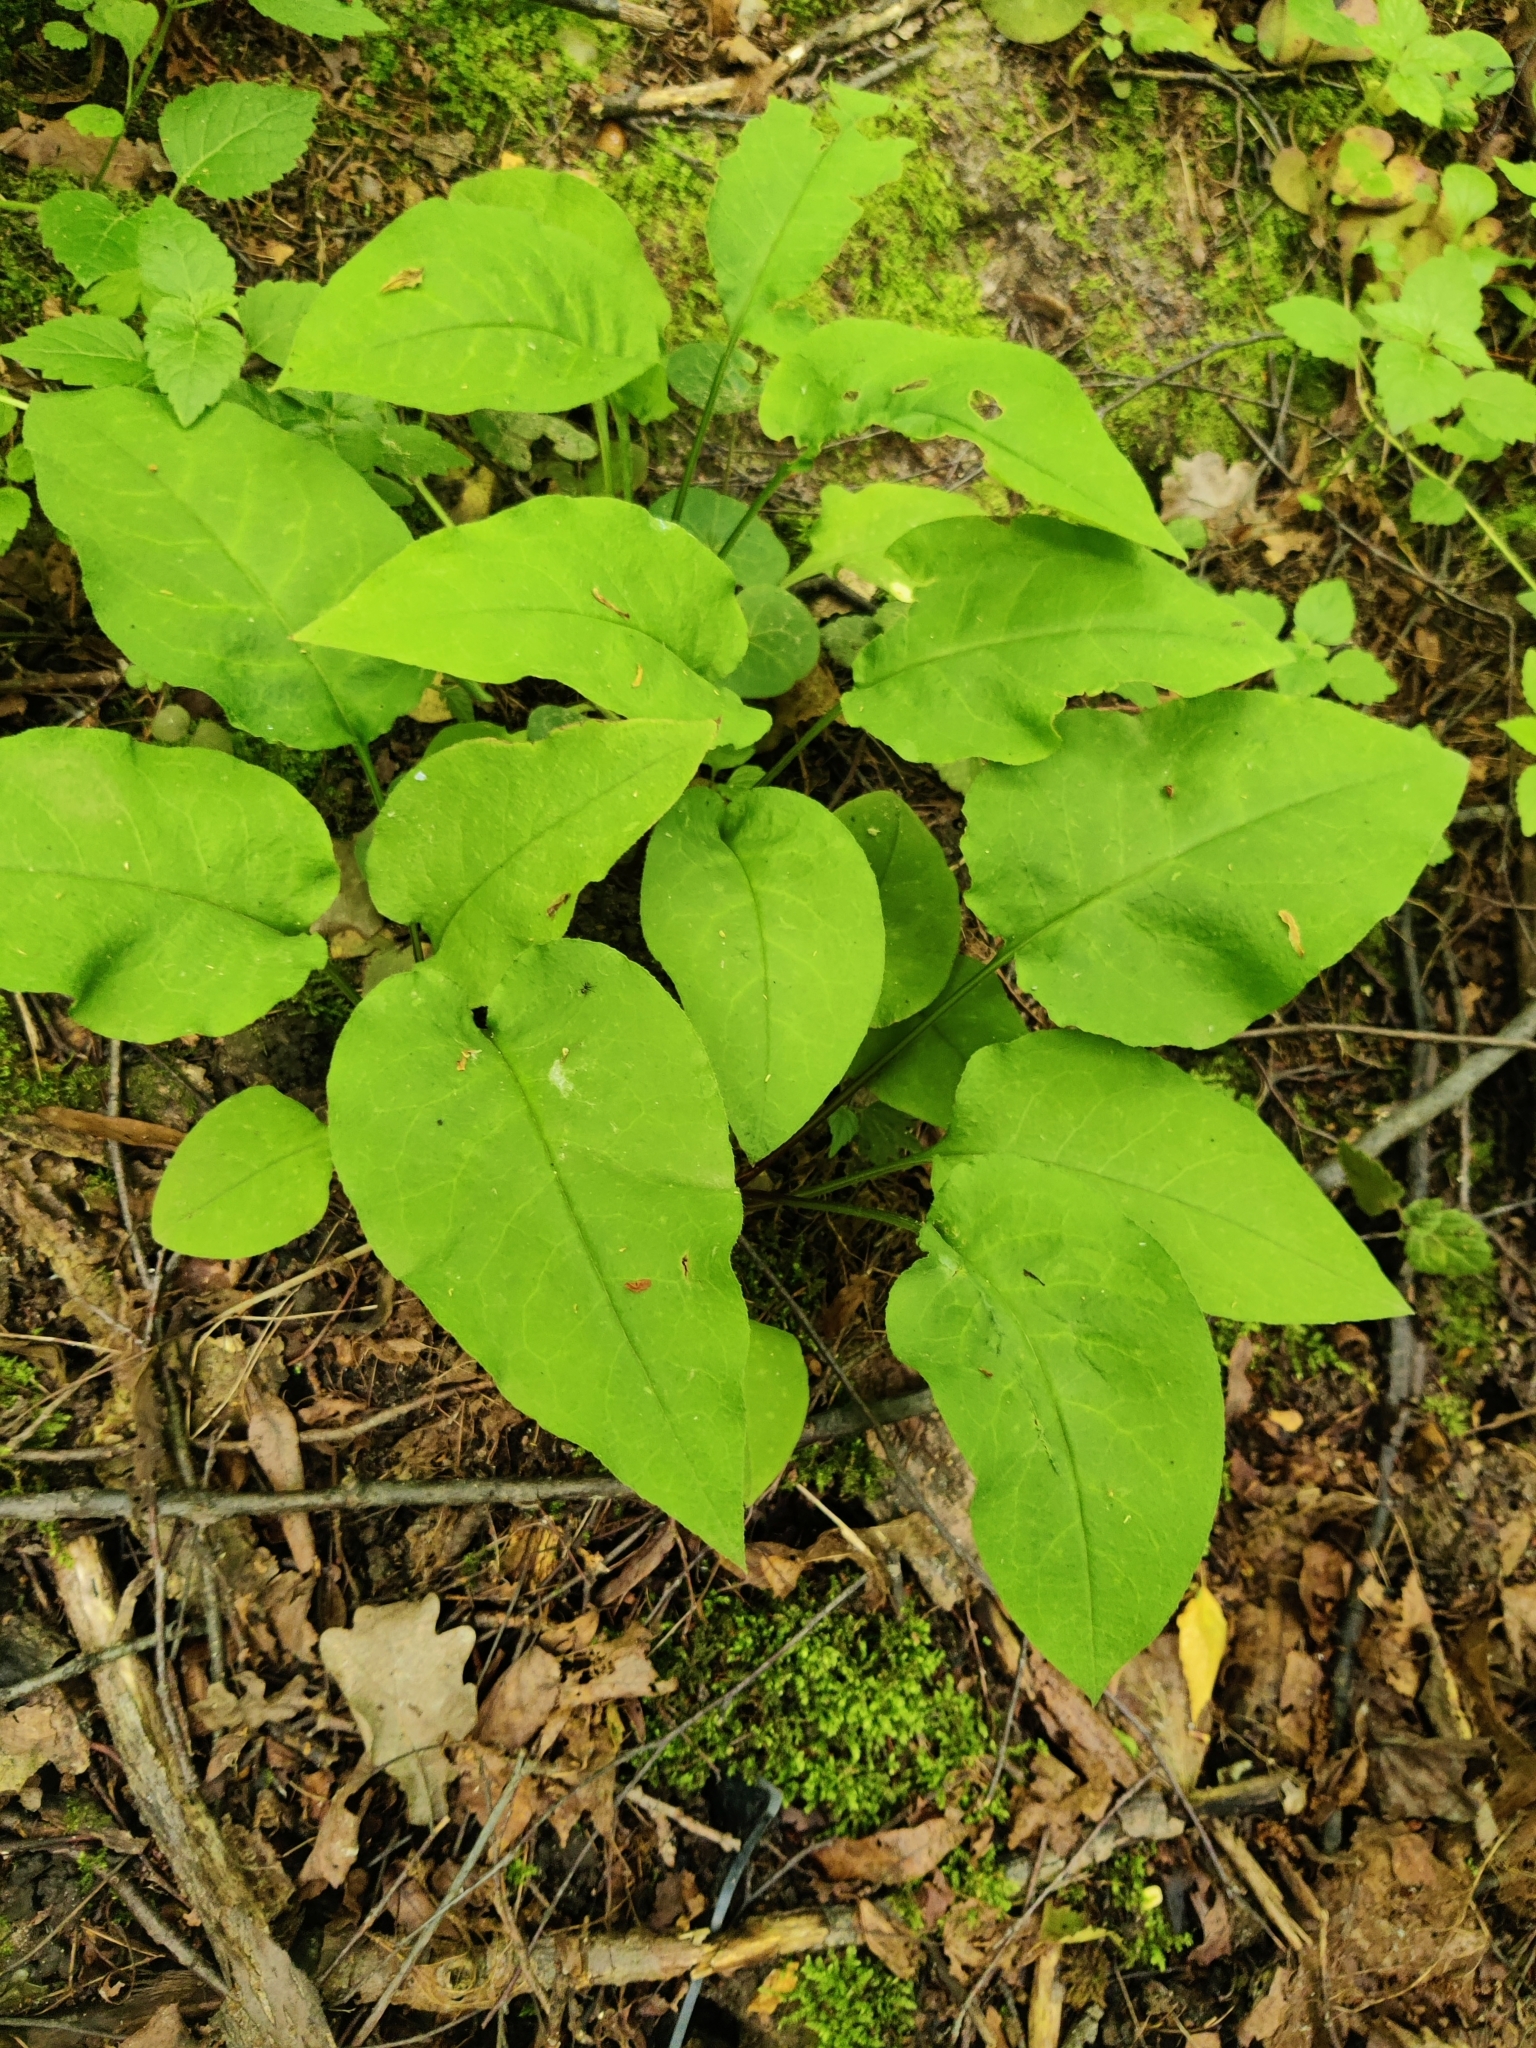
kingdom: Plantae
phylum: Tracheophyta
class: Magnoliopsida
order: Boraginales
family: Boraginaceae
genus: Pulmonaria
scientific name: Pulmonaria obscura
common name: Suffolk lungwort
